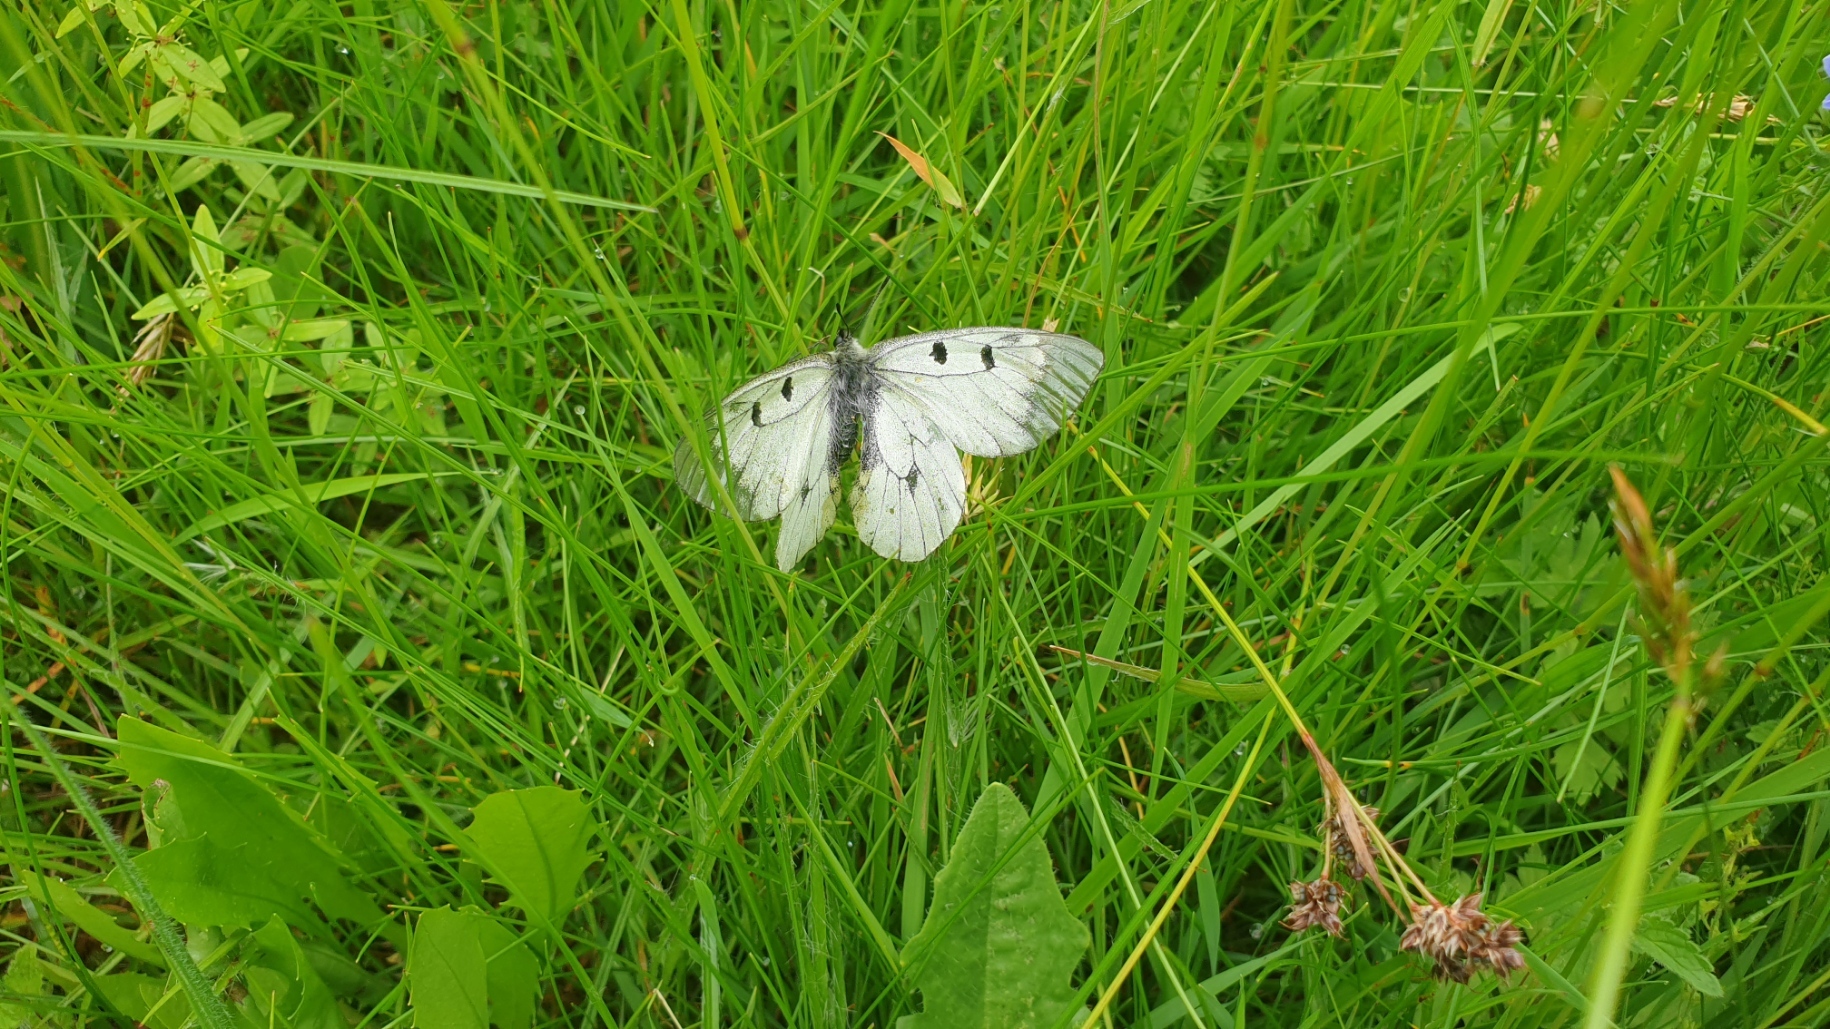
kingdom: Animalia
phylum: Arthropoda
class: Insecta
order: Lepidoptera
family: Papilionidae
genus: Parnassius
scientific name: Parnassius mnemosyne
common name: Clouded apollo
